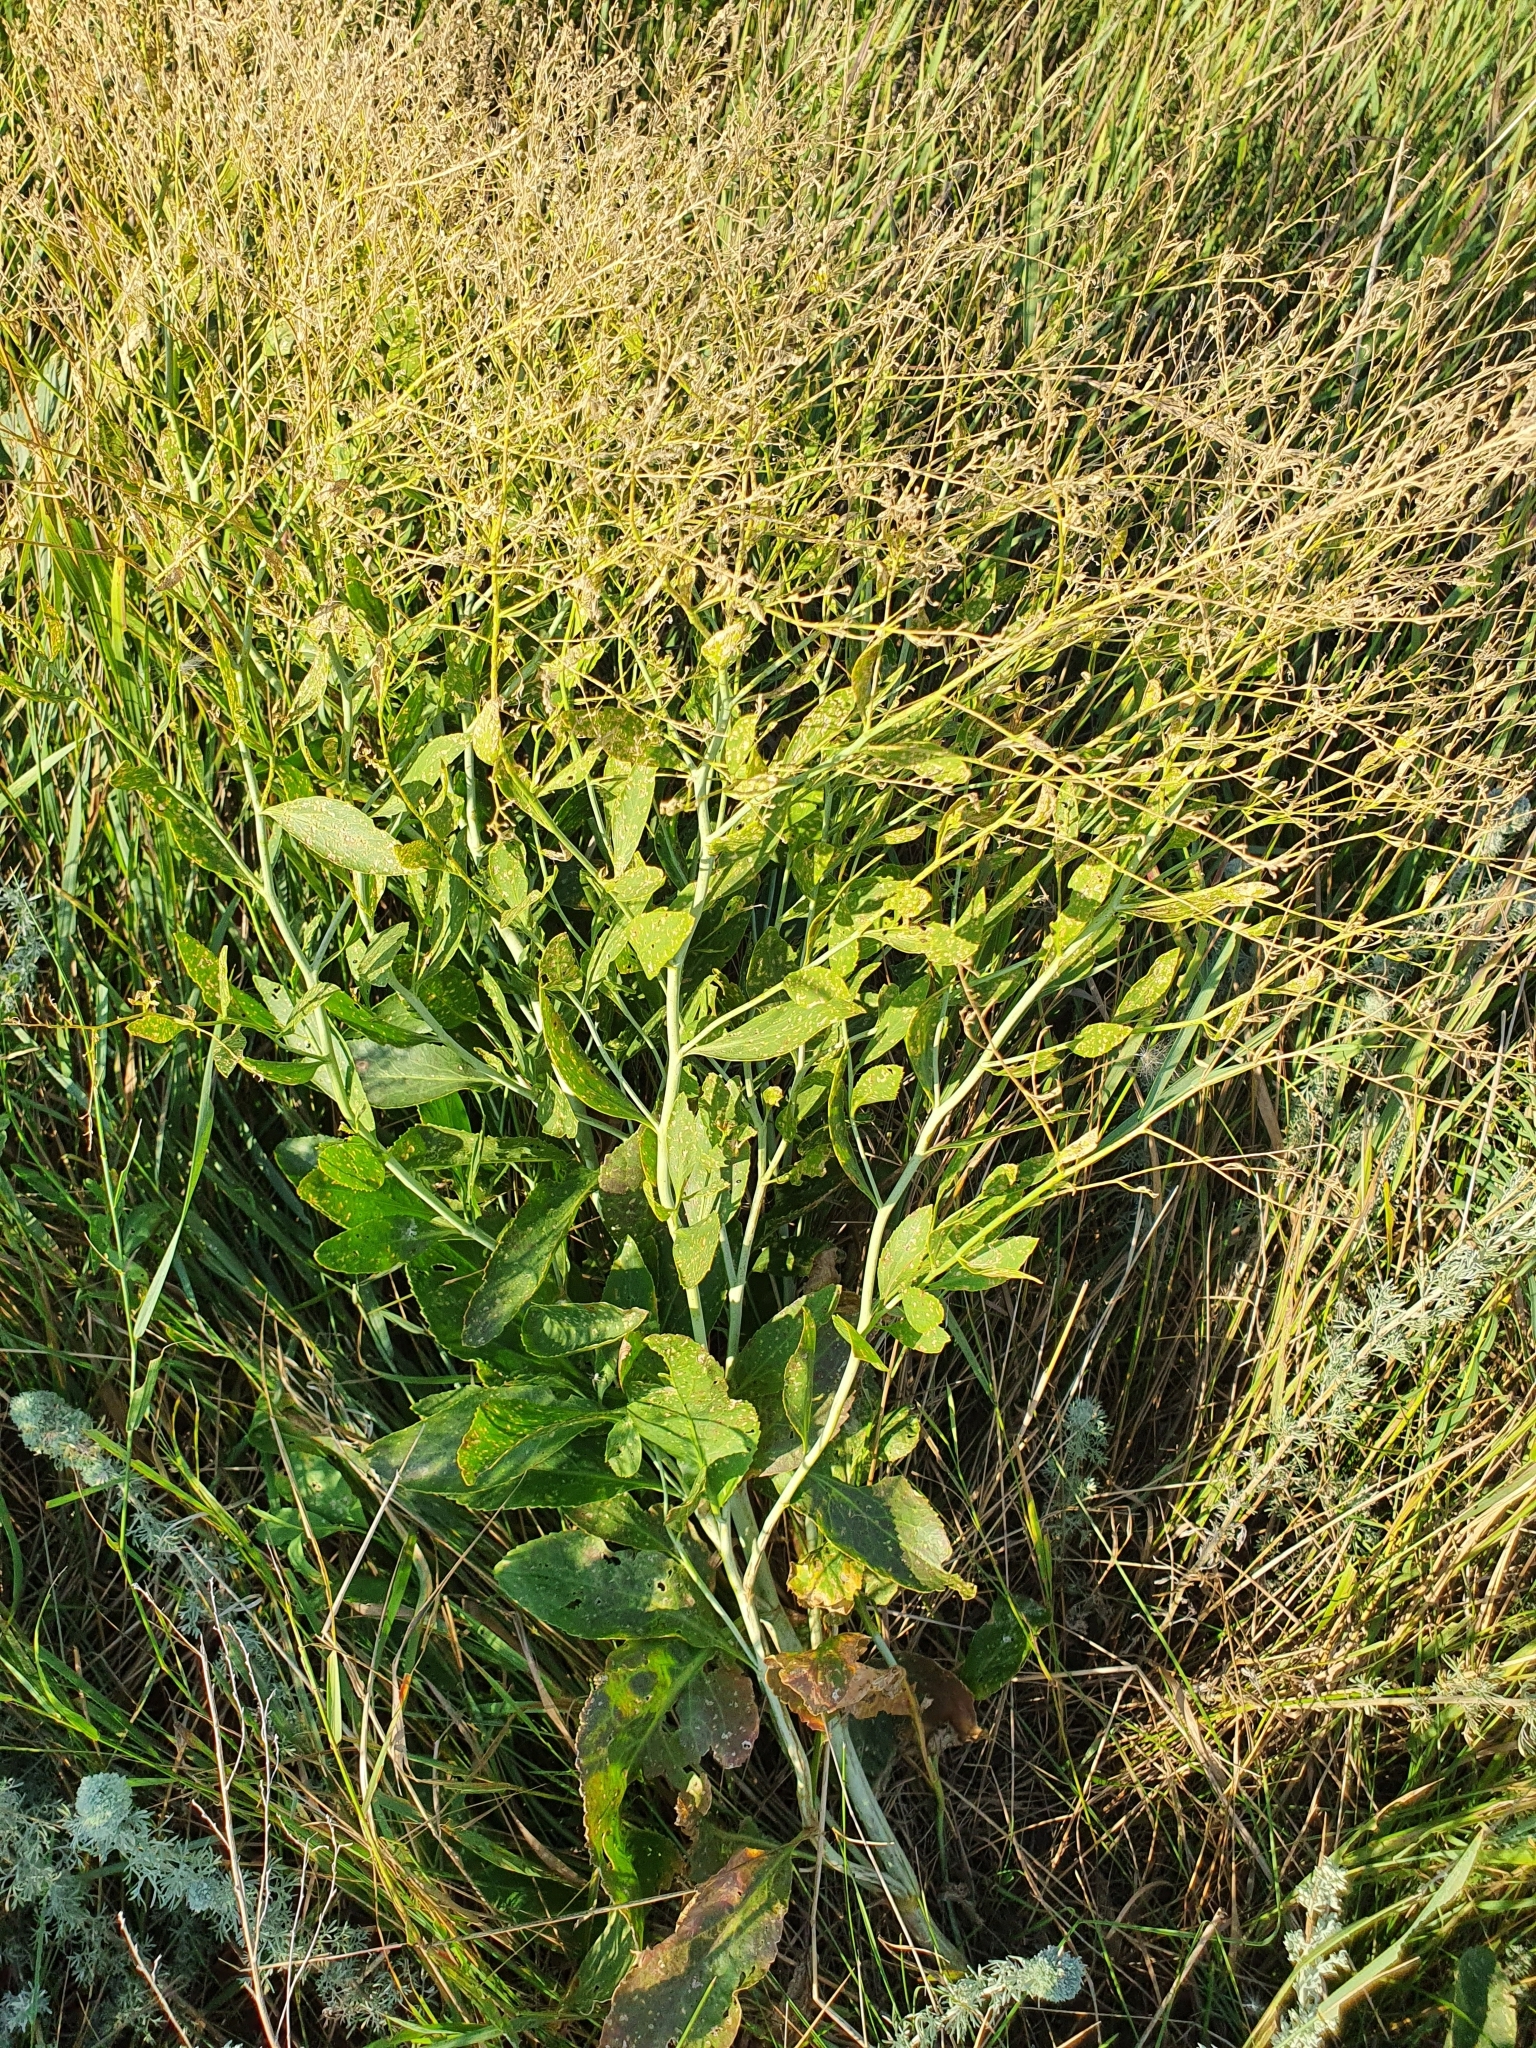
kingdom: Plantae
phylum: Tracheophyta
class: Magnoliopsida
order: Brassicales
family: Brassicaceae
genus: Lepidium
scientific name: Lepidium latifolium
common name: Dittander
